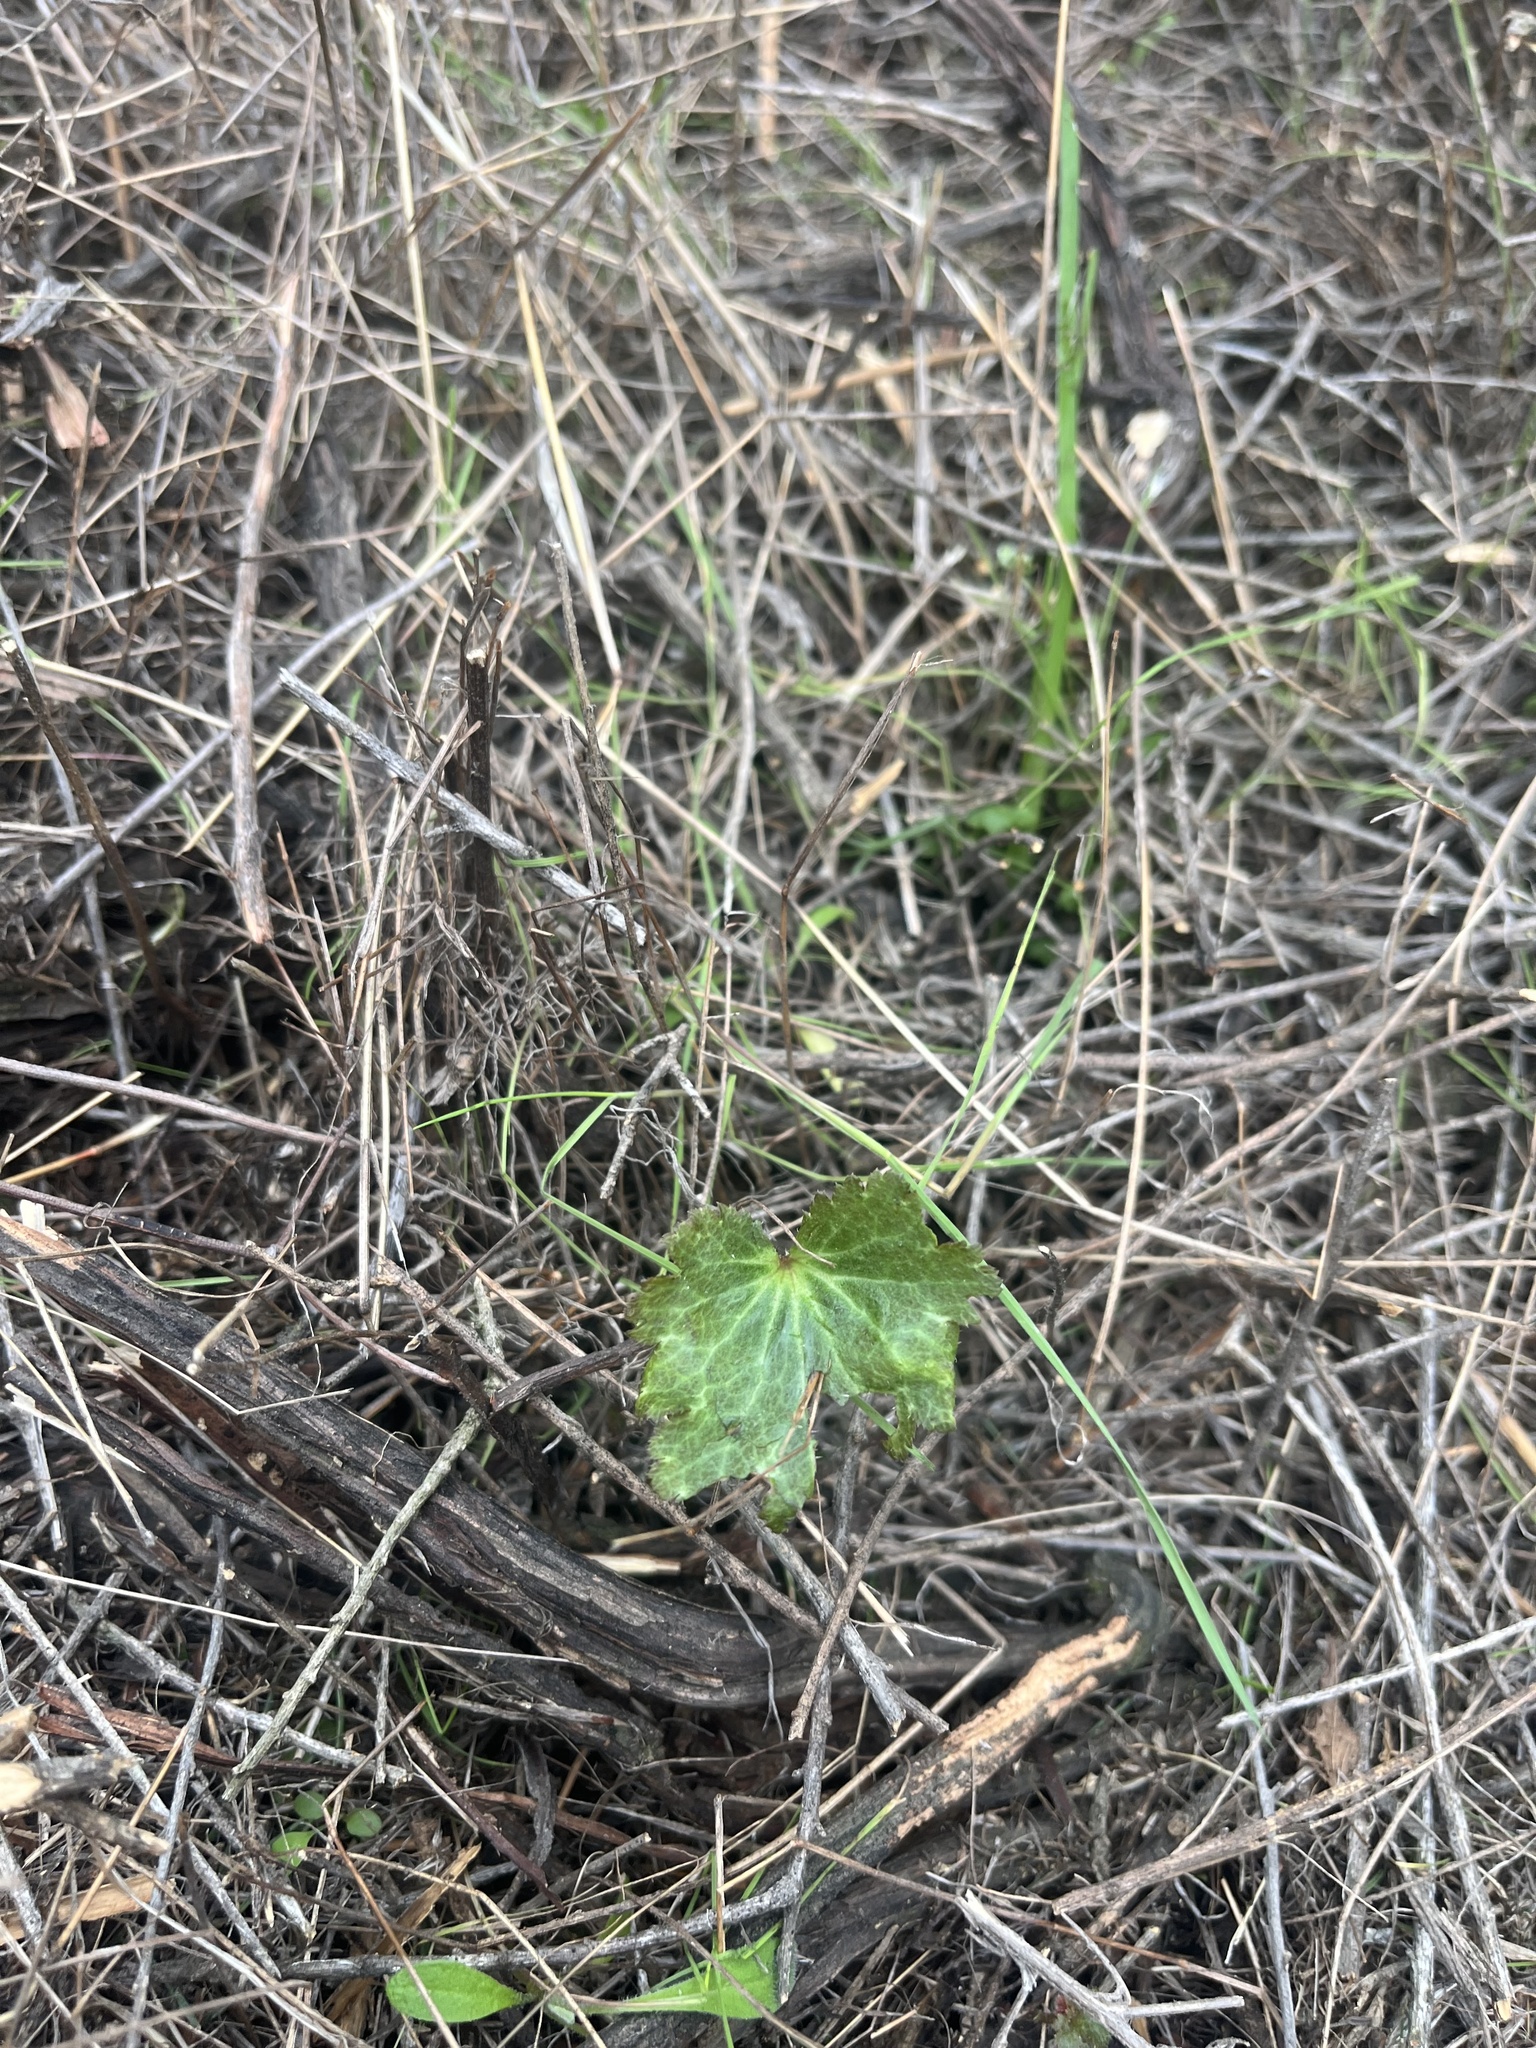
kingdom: Plantae
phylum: Tracheophyta
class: Magnoliopsida
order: Saxifragales
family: Saxifragaceae
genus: Jepsonia
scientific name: Jepsonia parryi
